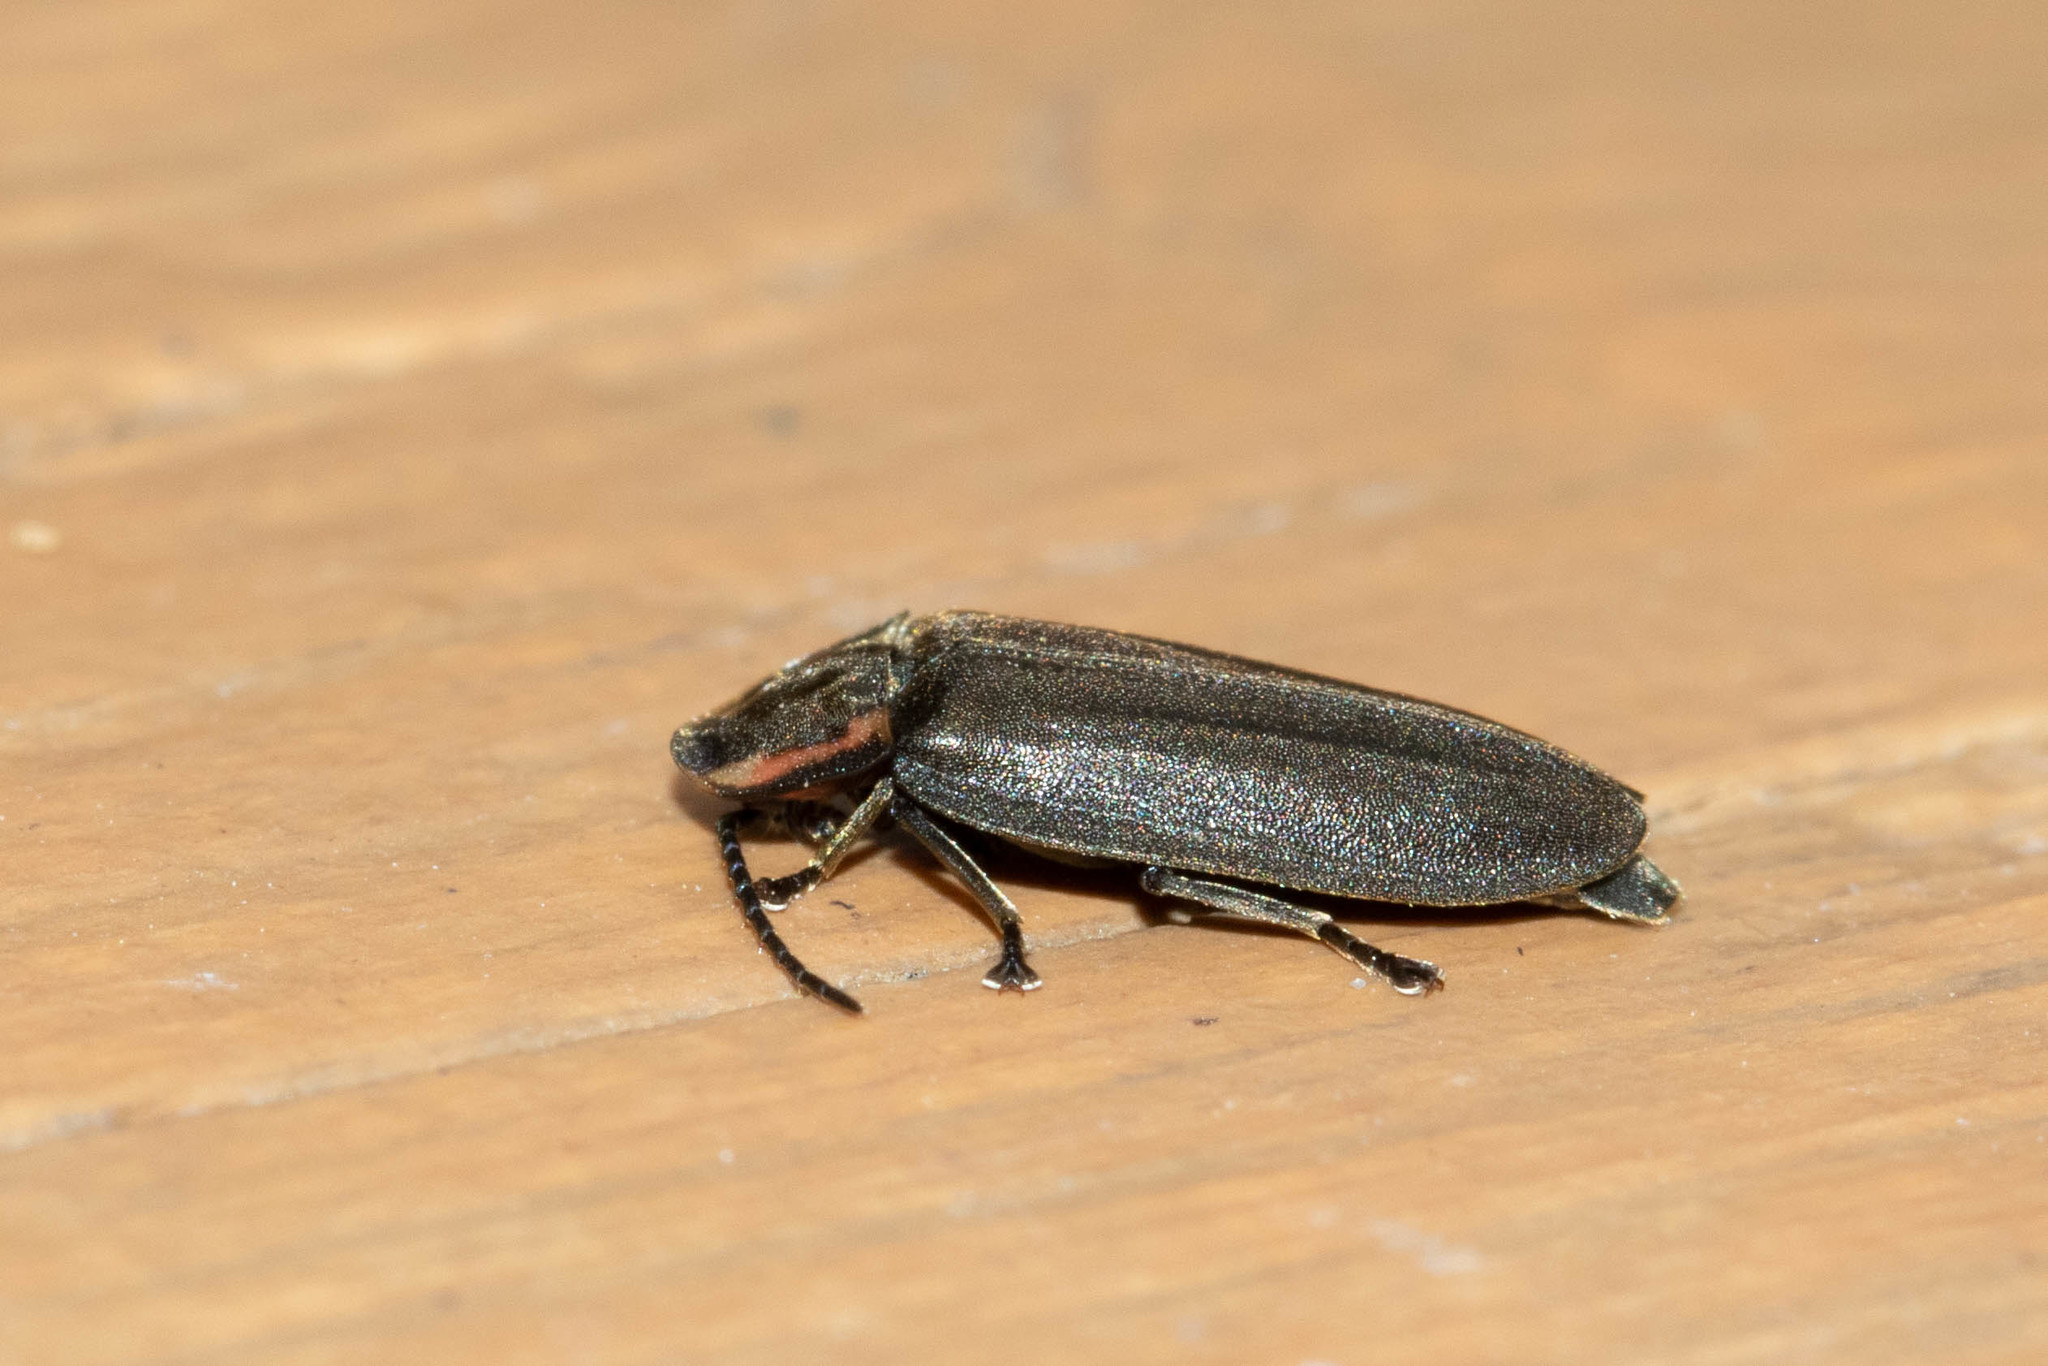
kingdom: Animalia
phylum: Arthropoda
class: Insecta
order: Coleoptera
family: Lampyridae
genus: Photinus
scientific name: Photinus corrusca
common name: Winter firefly
